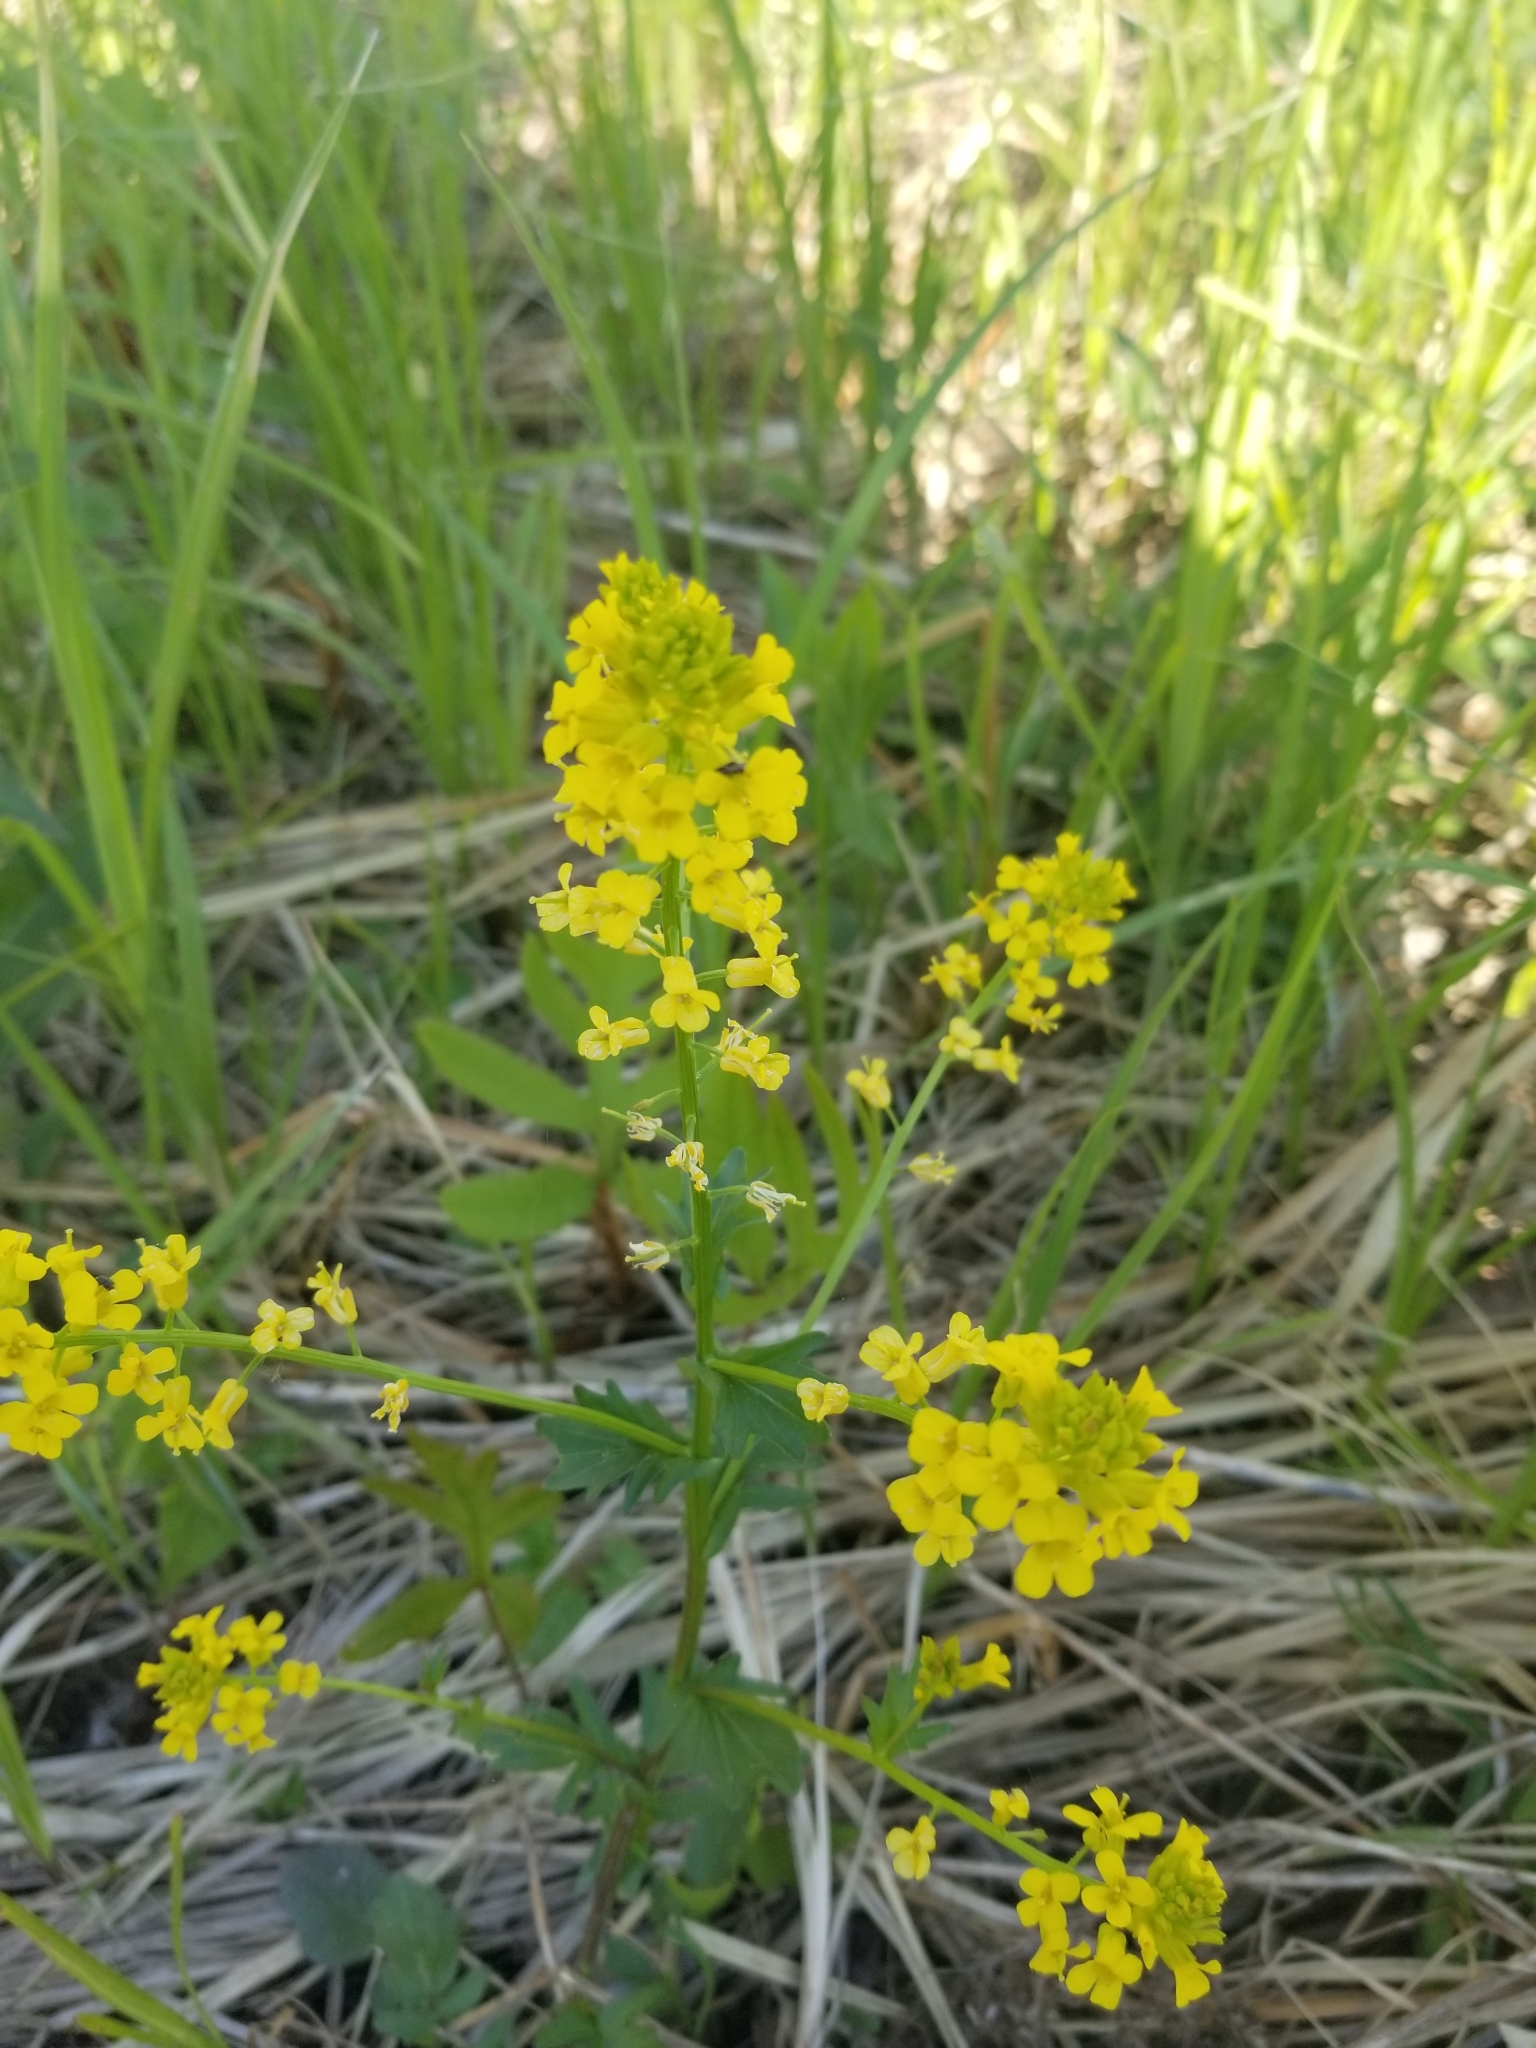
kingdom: Plantae
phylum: Tracheophyta
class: Magnoliopsida
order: Brassicales
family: Brassicaceae
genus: Barbarea
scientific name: Barbarea vulgaris
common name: Cressy-greens
